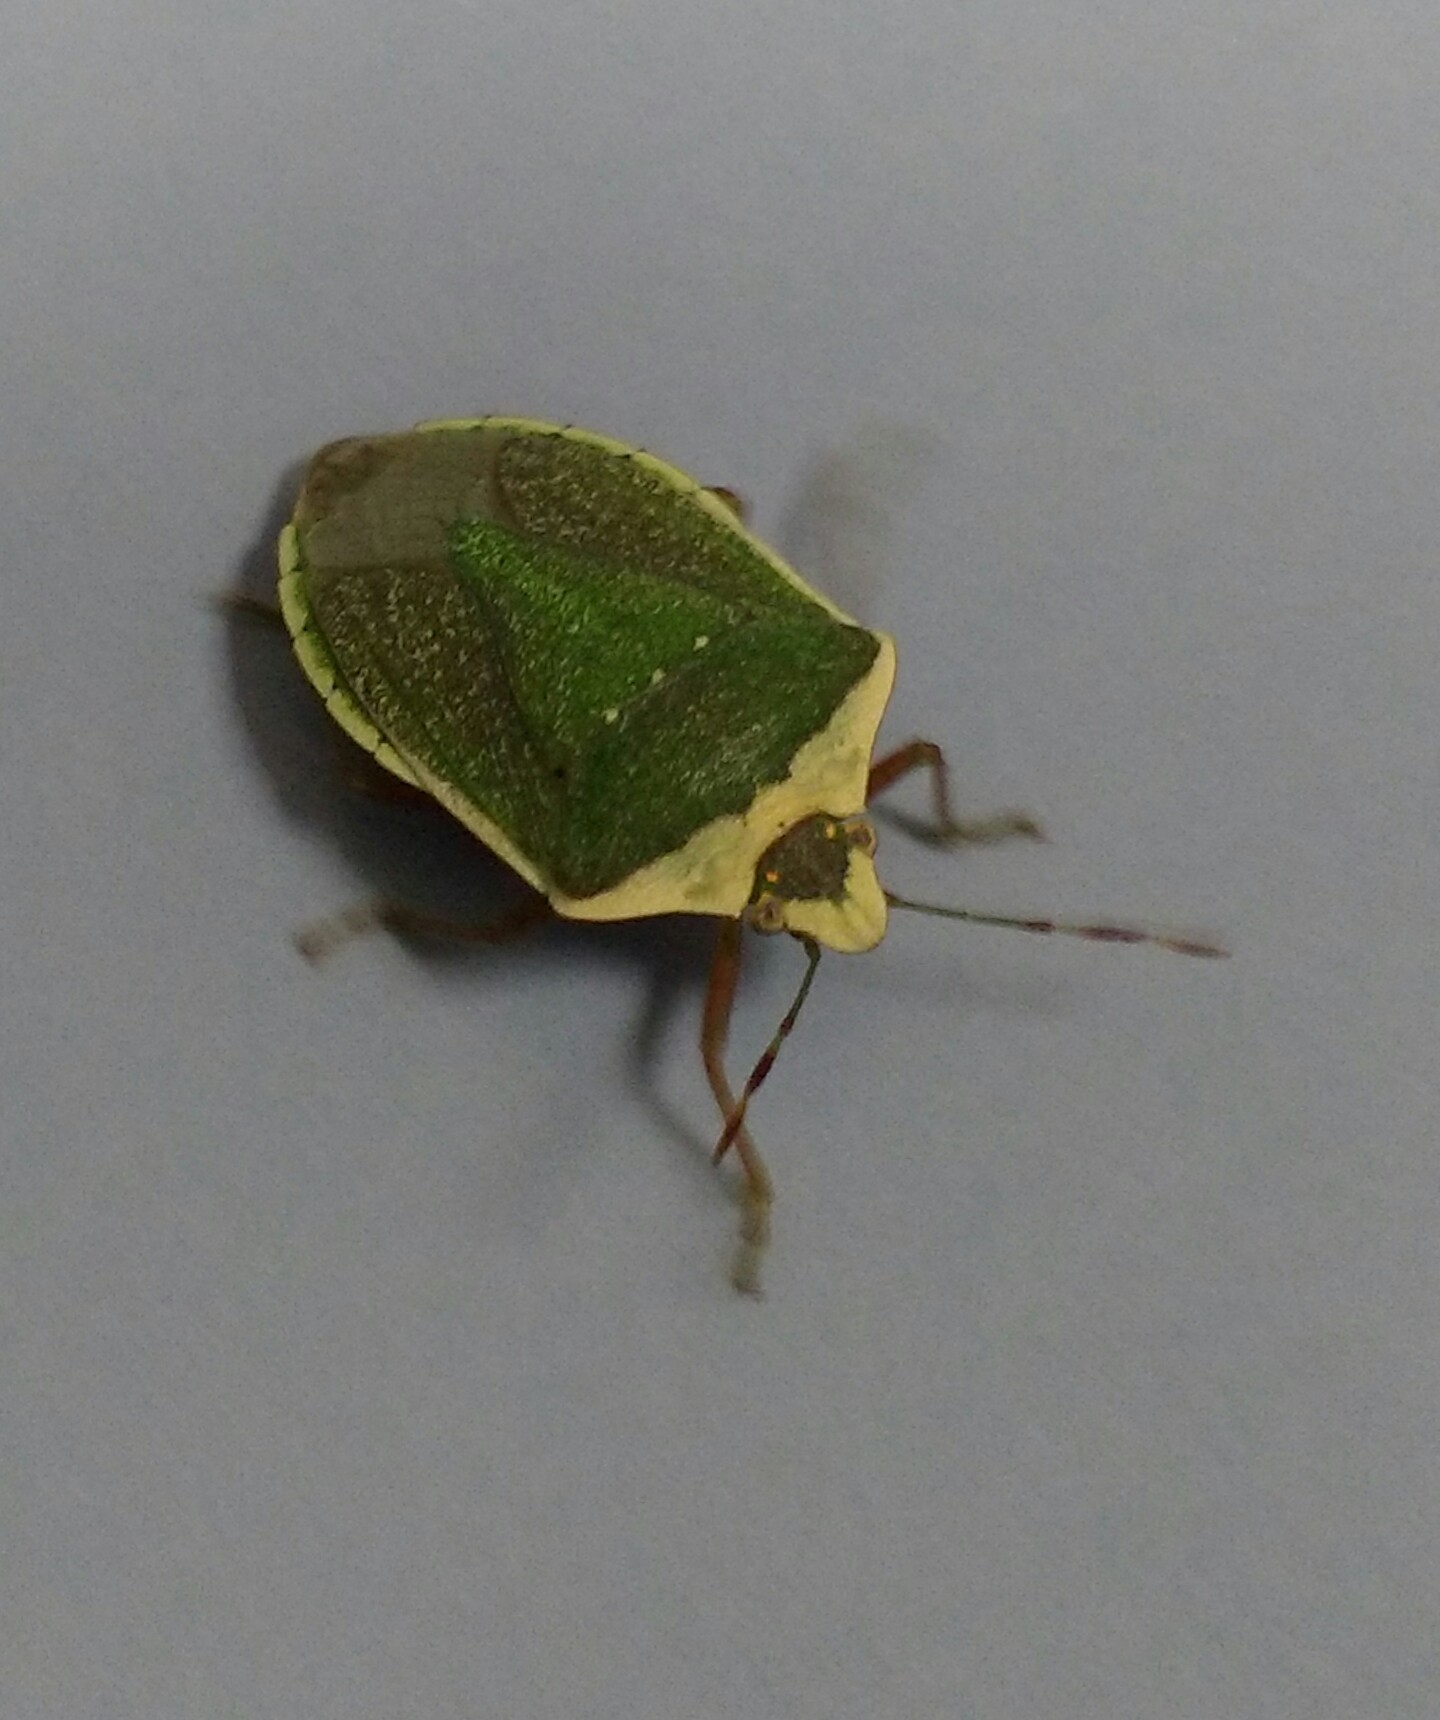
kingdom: Animalia
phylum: Arthropoda
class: Insecta
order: Hemiptera
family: Pentatomidae
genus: Nezara
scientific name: Nezara viridula
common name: Southern green stink bug
